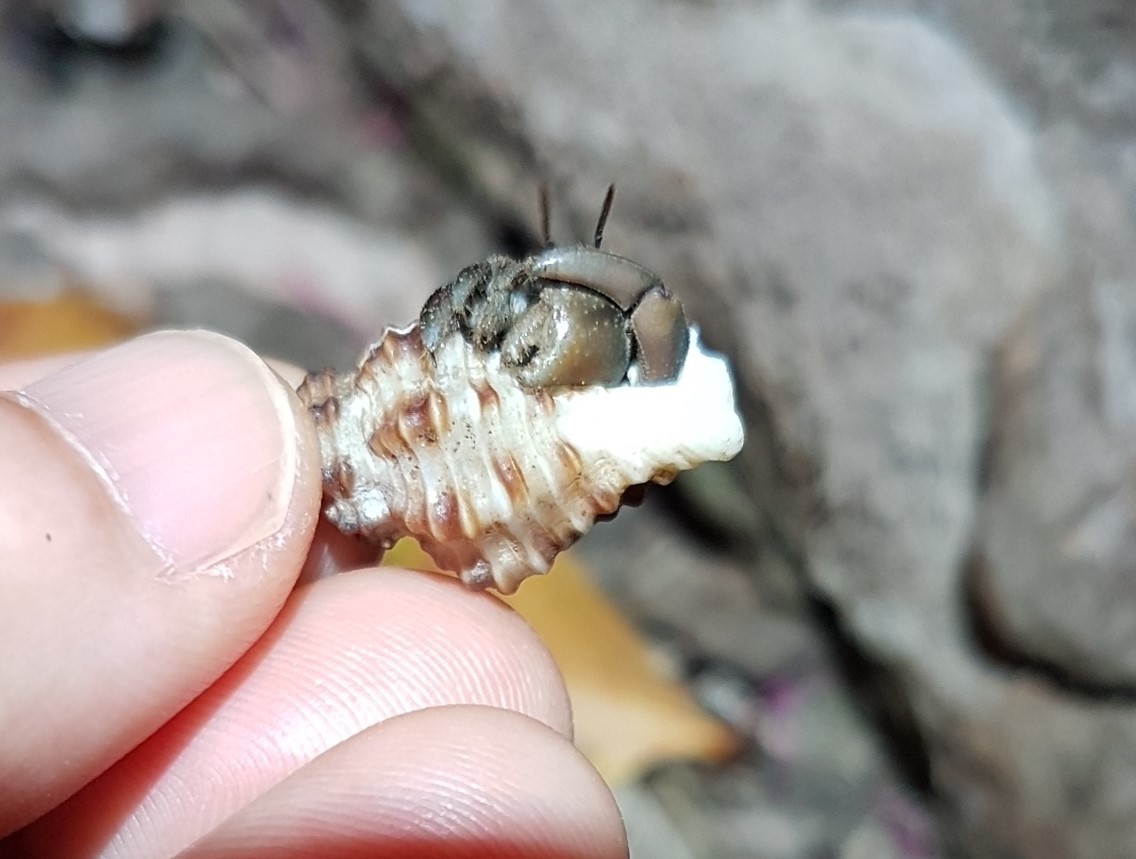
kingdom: Animalia
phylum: Mollusca
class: Gastropoda
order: Neogastropoda
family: Pisaniidae
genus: Hesperisternia
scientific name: Hesperisternia vibex
